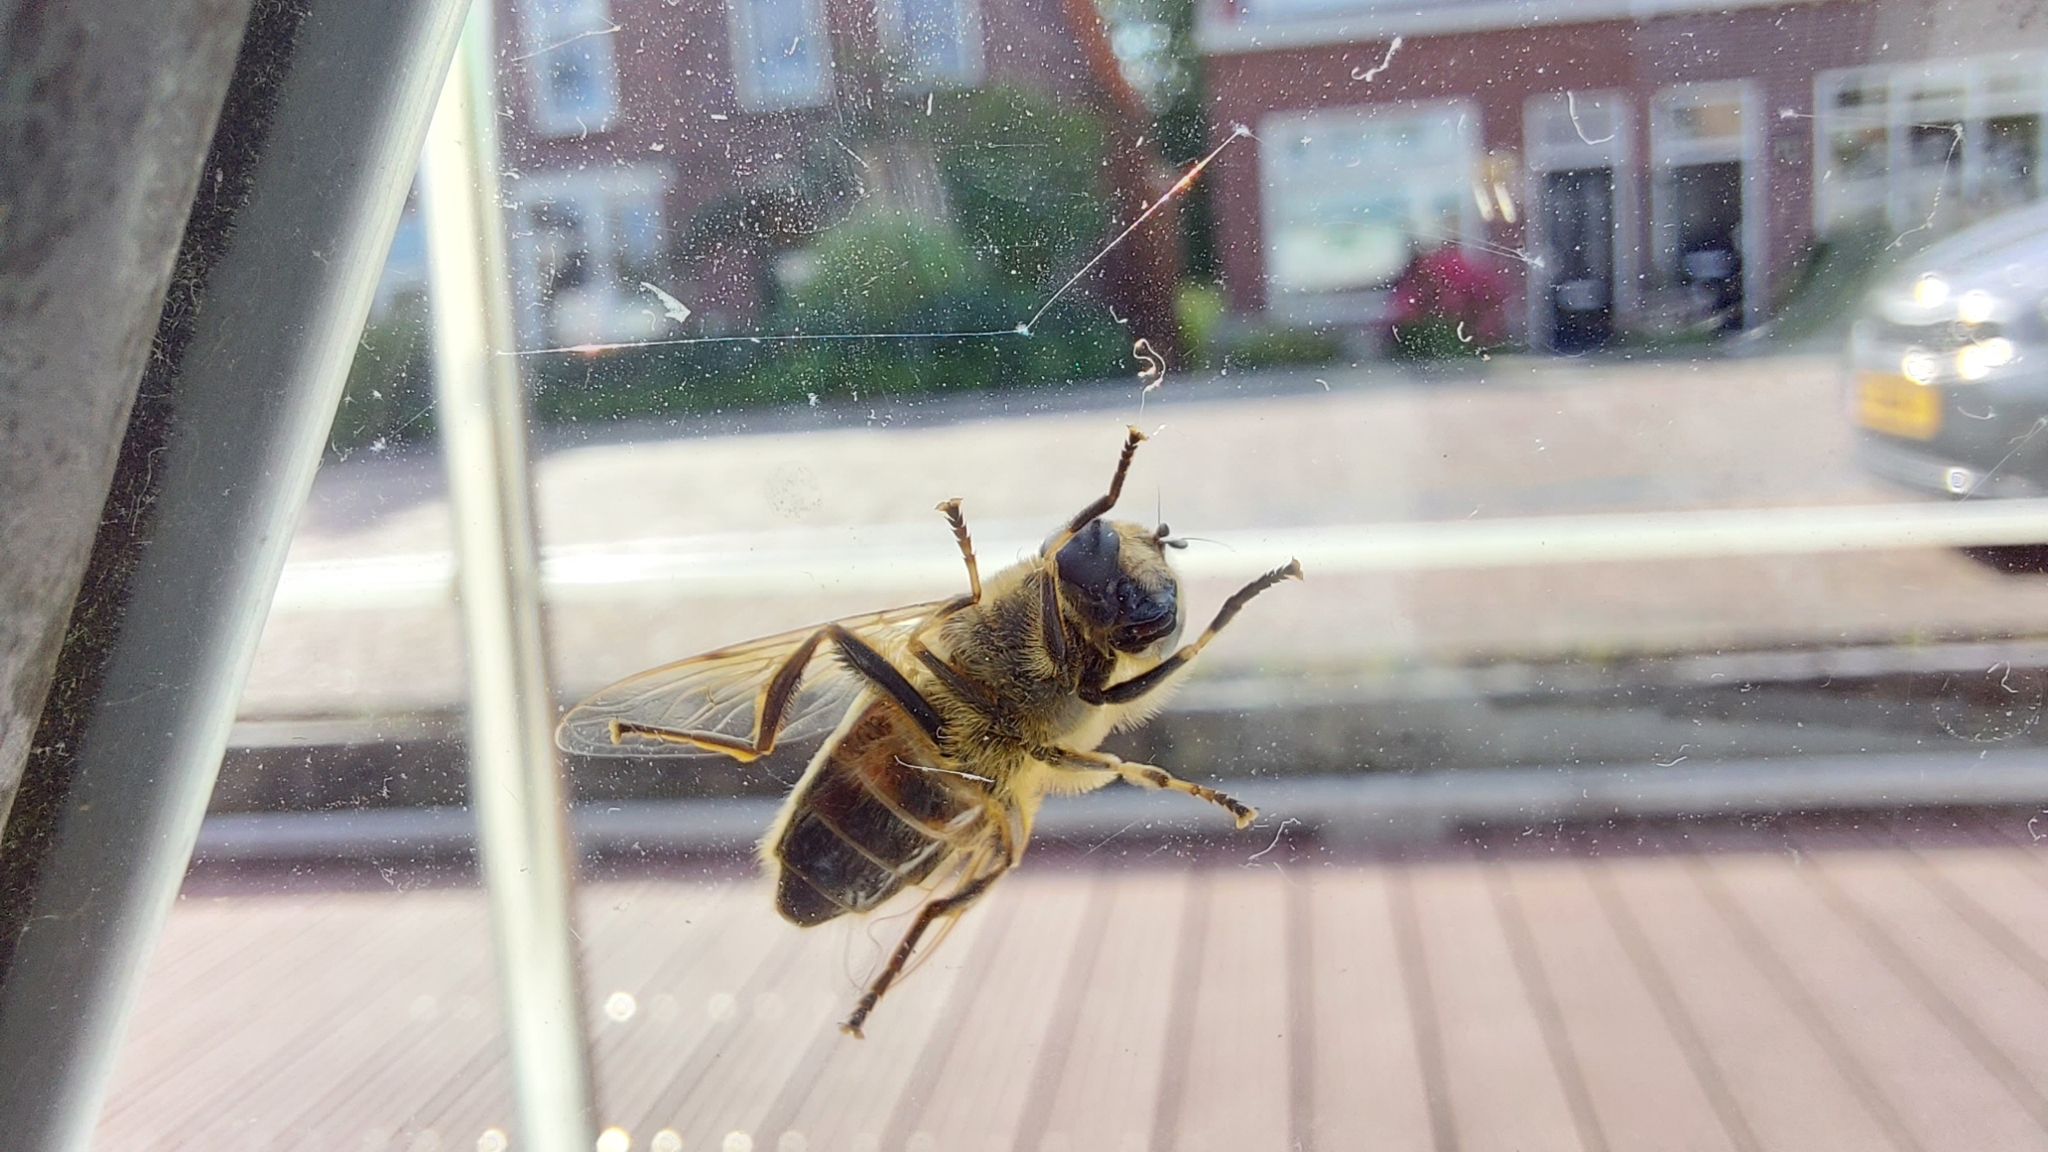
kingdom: Animalia
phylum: Arthropoda
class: Insecta
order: Diptera
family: Syrphidae
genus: Eristalis
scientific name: Eristalis tenax
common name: Drone fly
